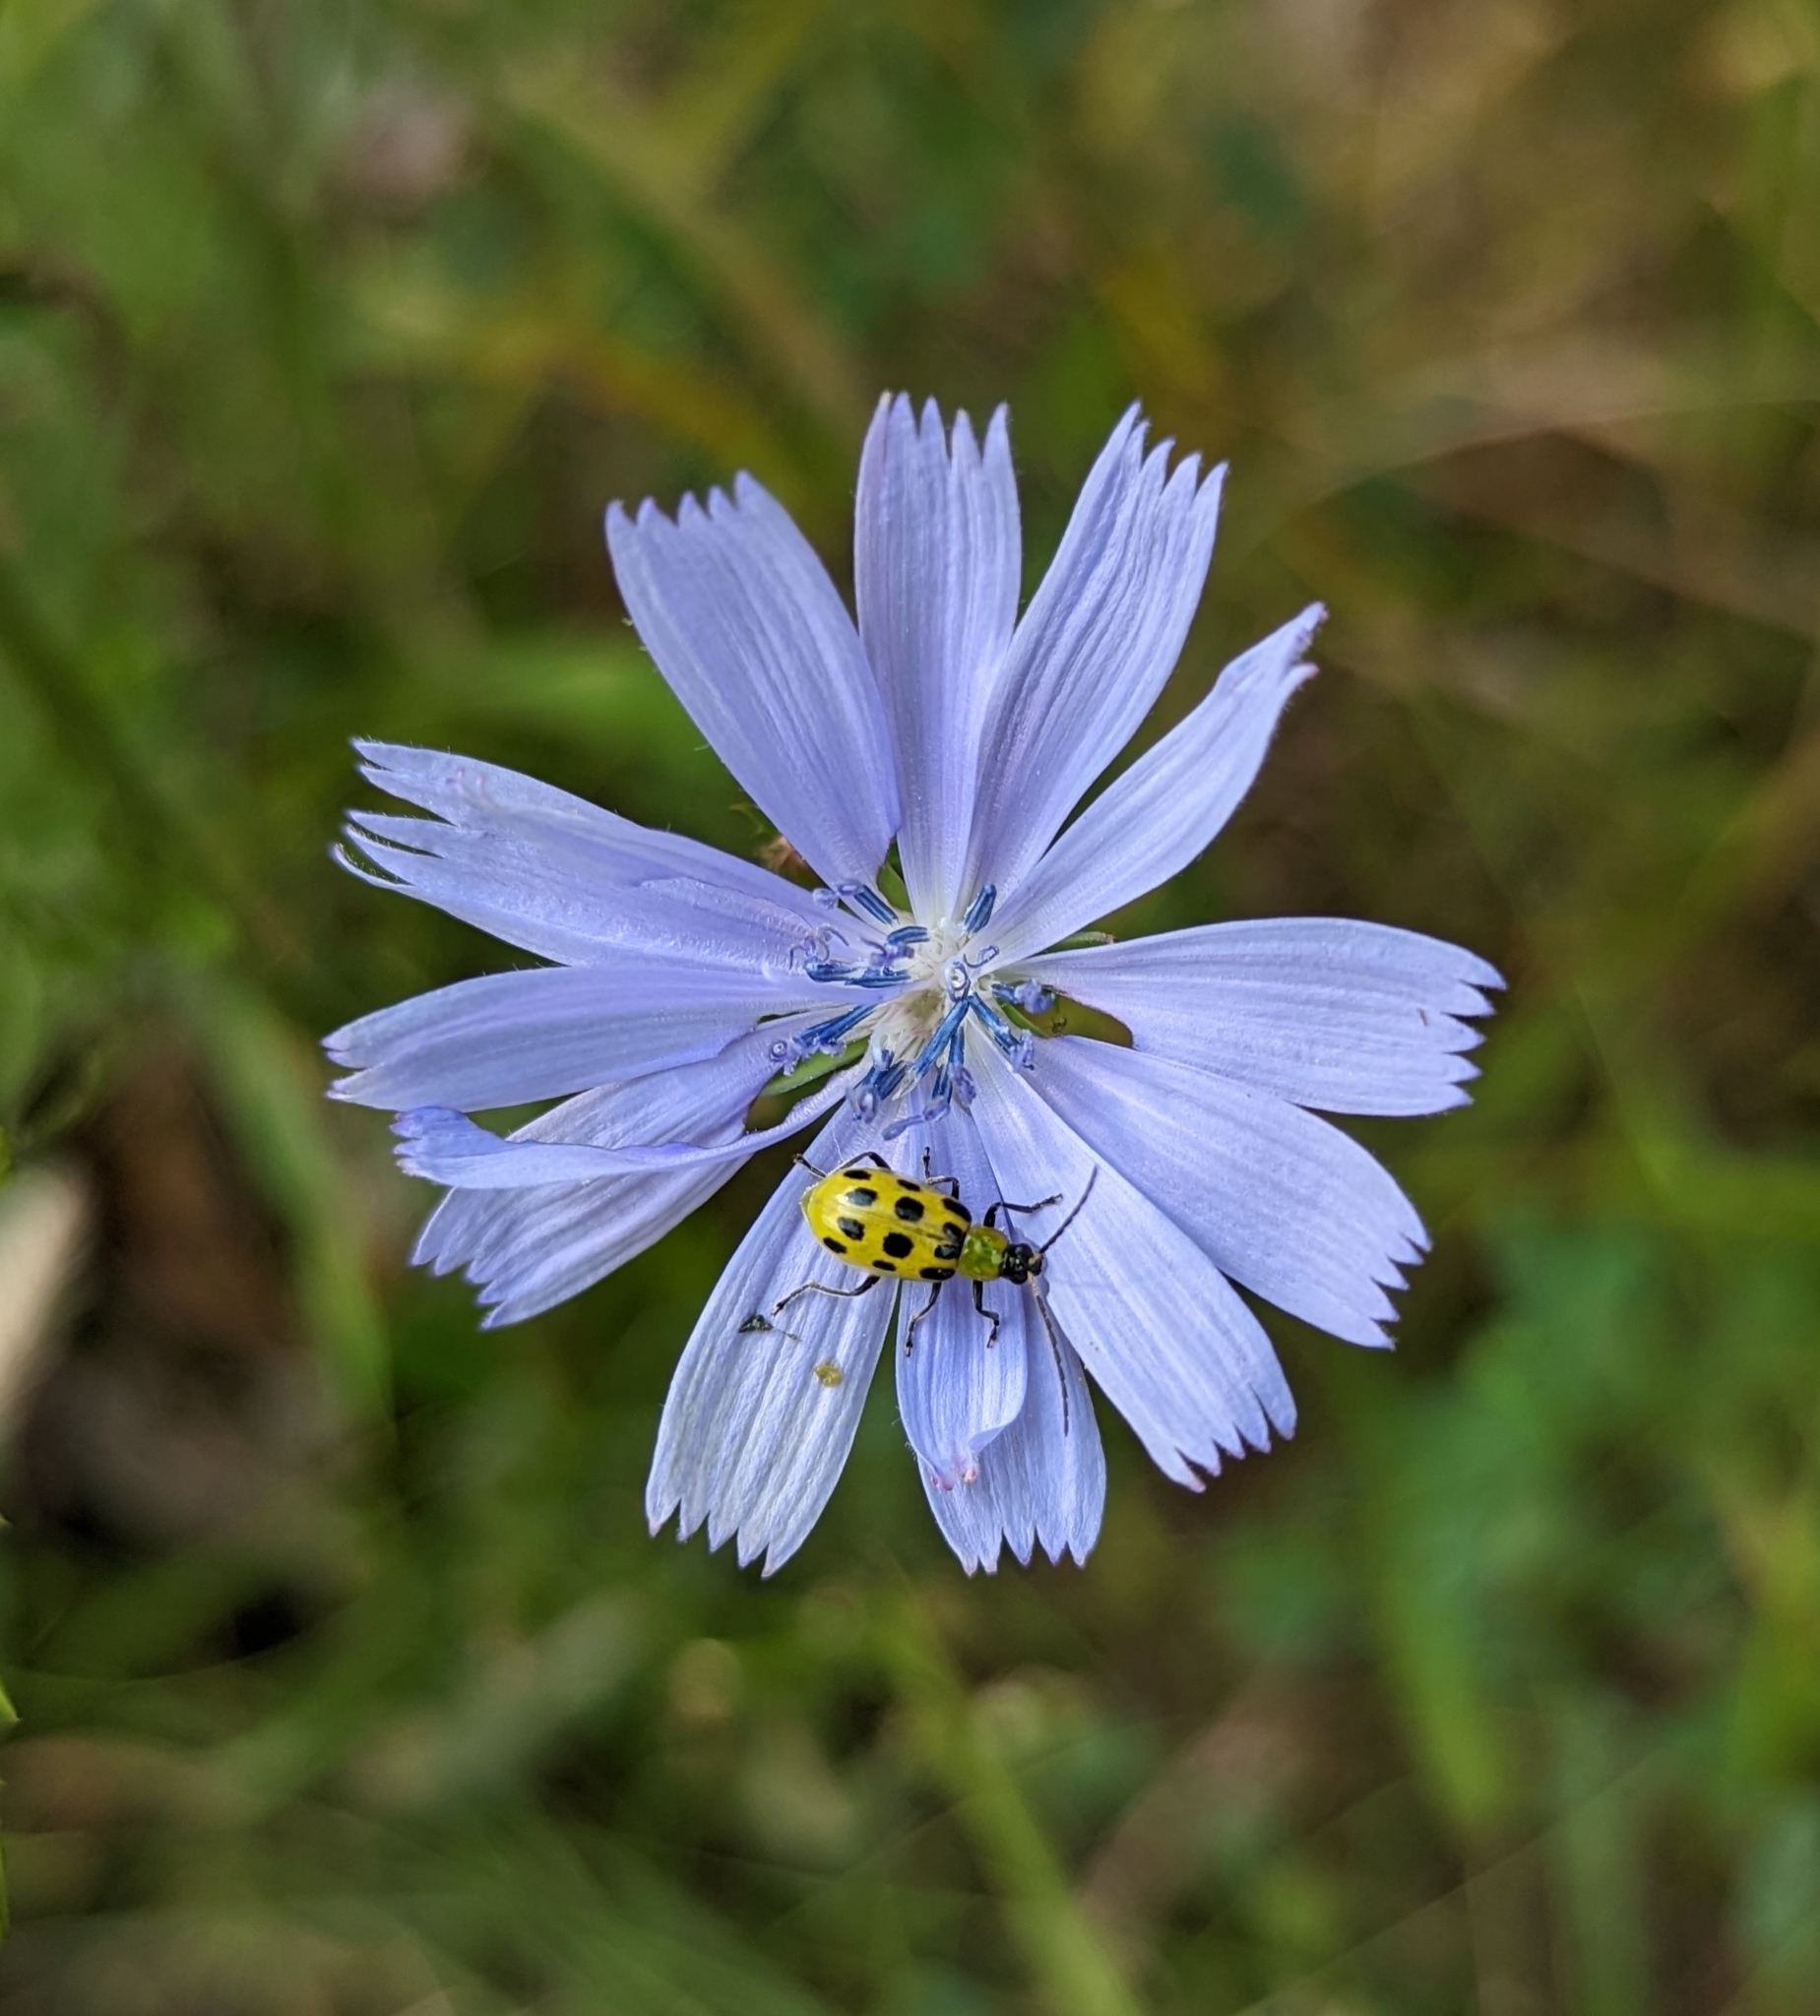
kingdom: Plantae
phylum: Tracheophyta
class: Magnoliopsida
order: Asterales
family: Asteraceae
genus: Cichorium
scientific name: Cichorium intybus
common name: Chicory
